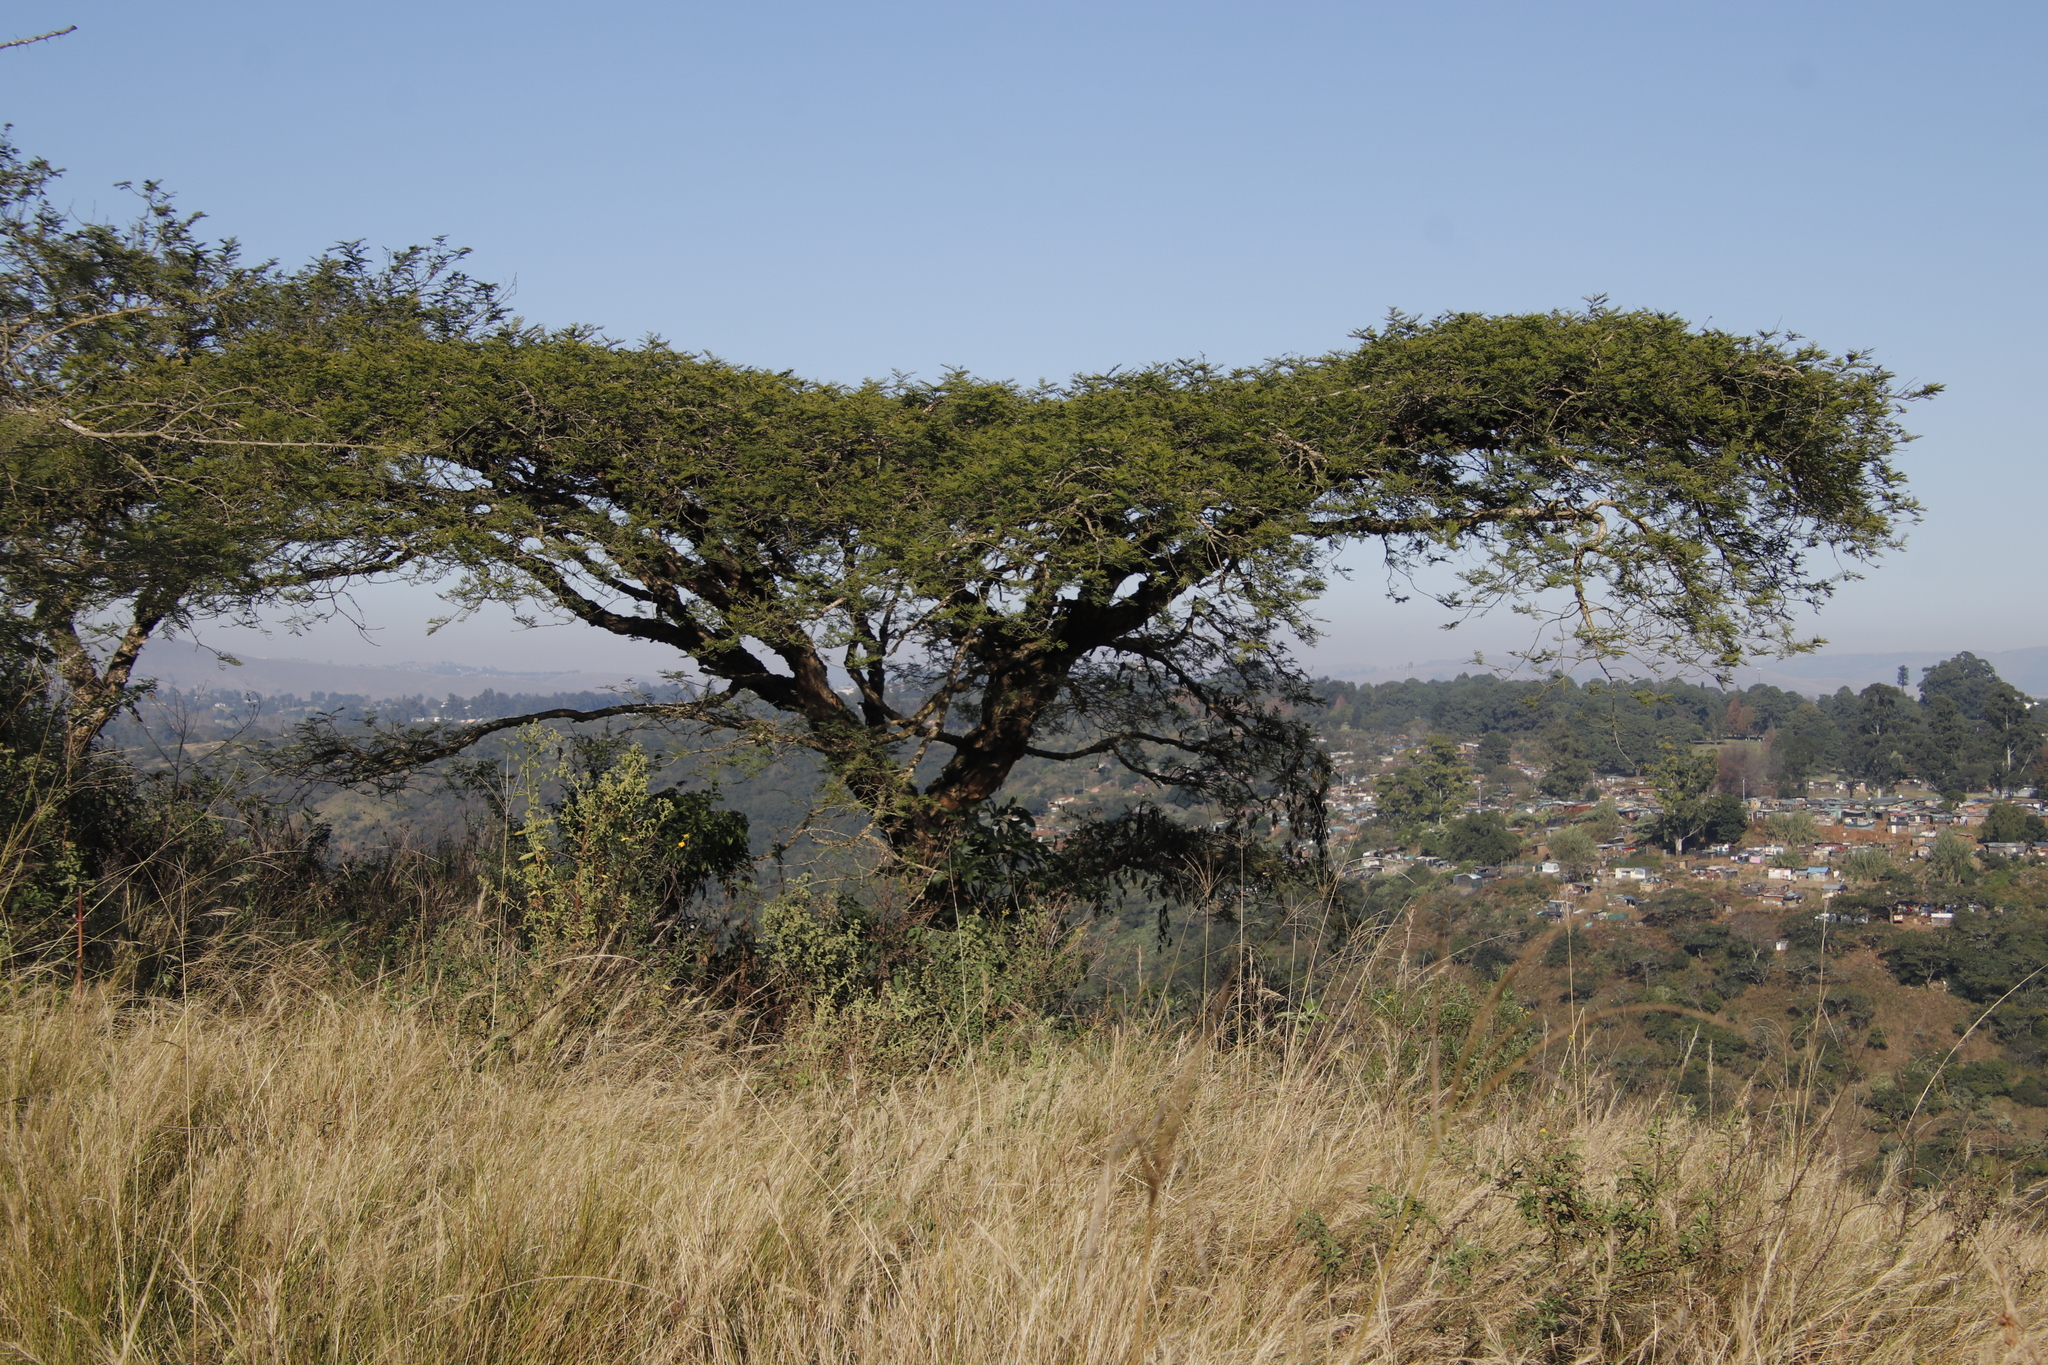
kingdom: Plantae
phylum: Tracheophyta
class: Magnoliopsida
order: Fabales
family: Fabaceae
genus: Vachellia
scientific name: Vachellia sieberiana
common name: Flat-topped thorn
